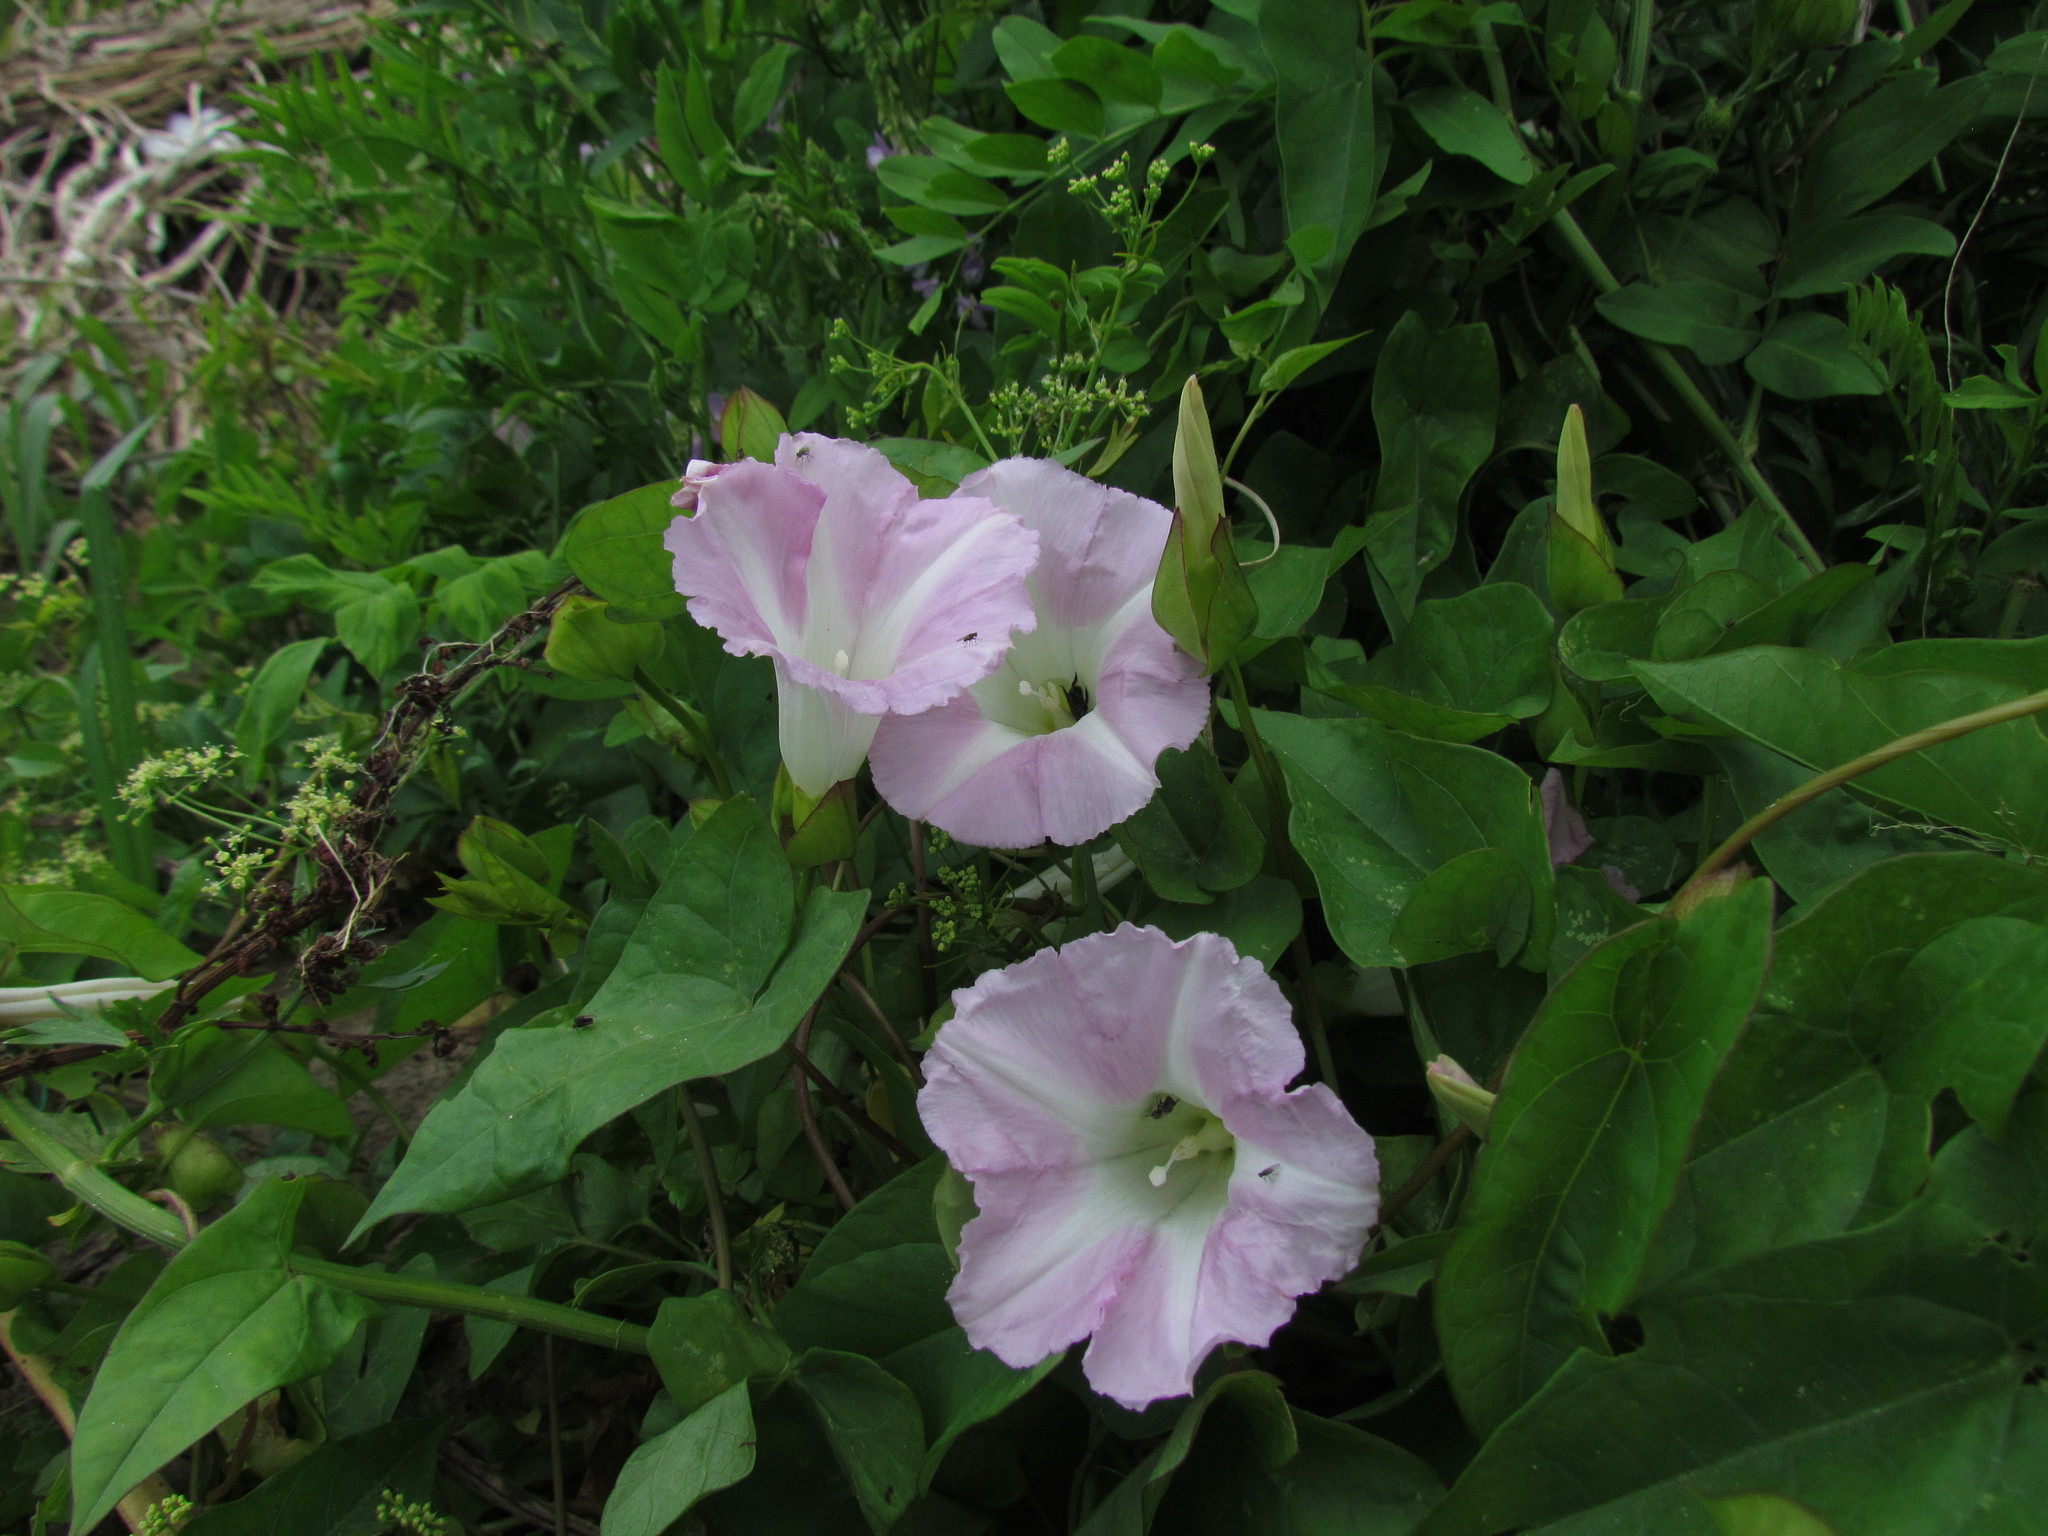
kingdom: Plantae
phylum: Tracheophyta
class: Magnoliopsida
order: Solanales
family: Convolvulaceae
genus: Calystegia
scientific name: Calystegia sepium
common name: Hedge bindweed
